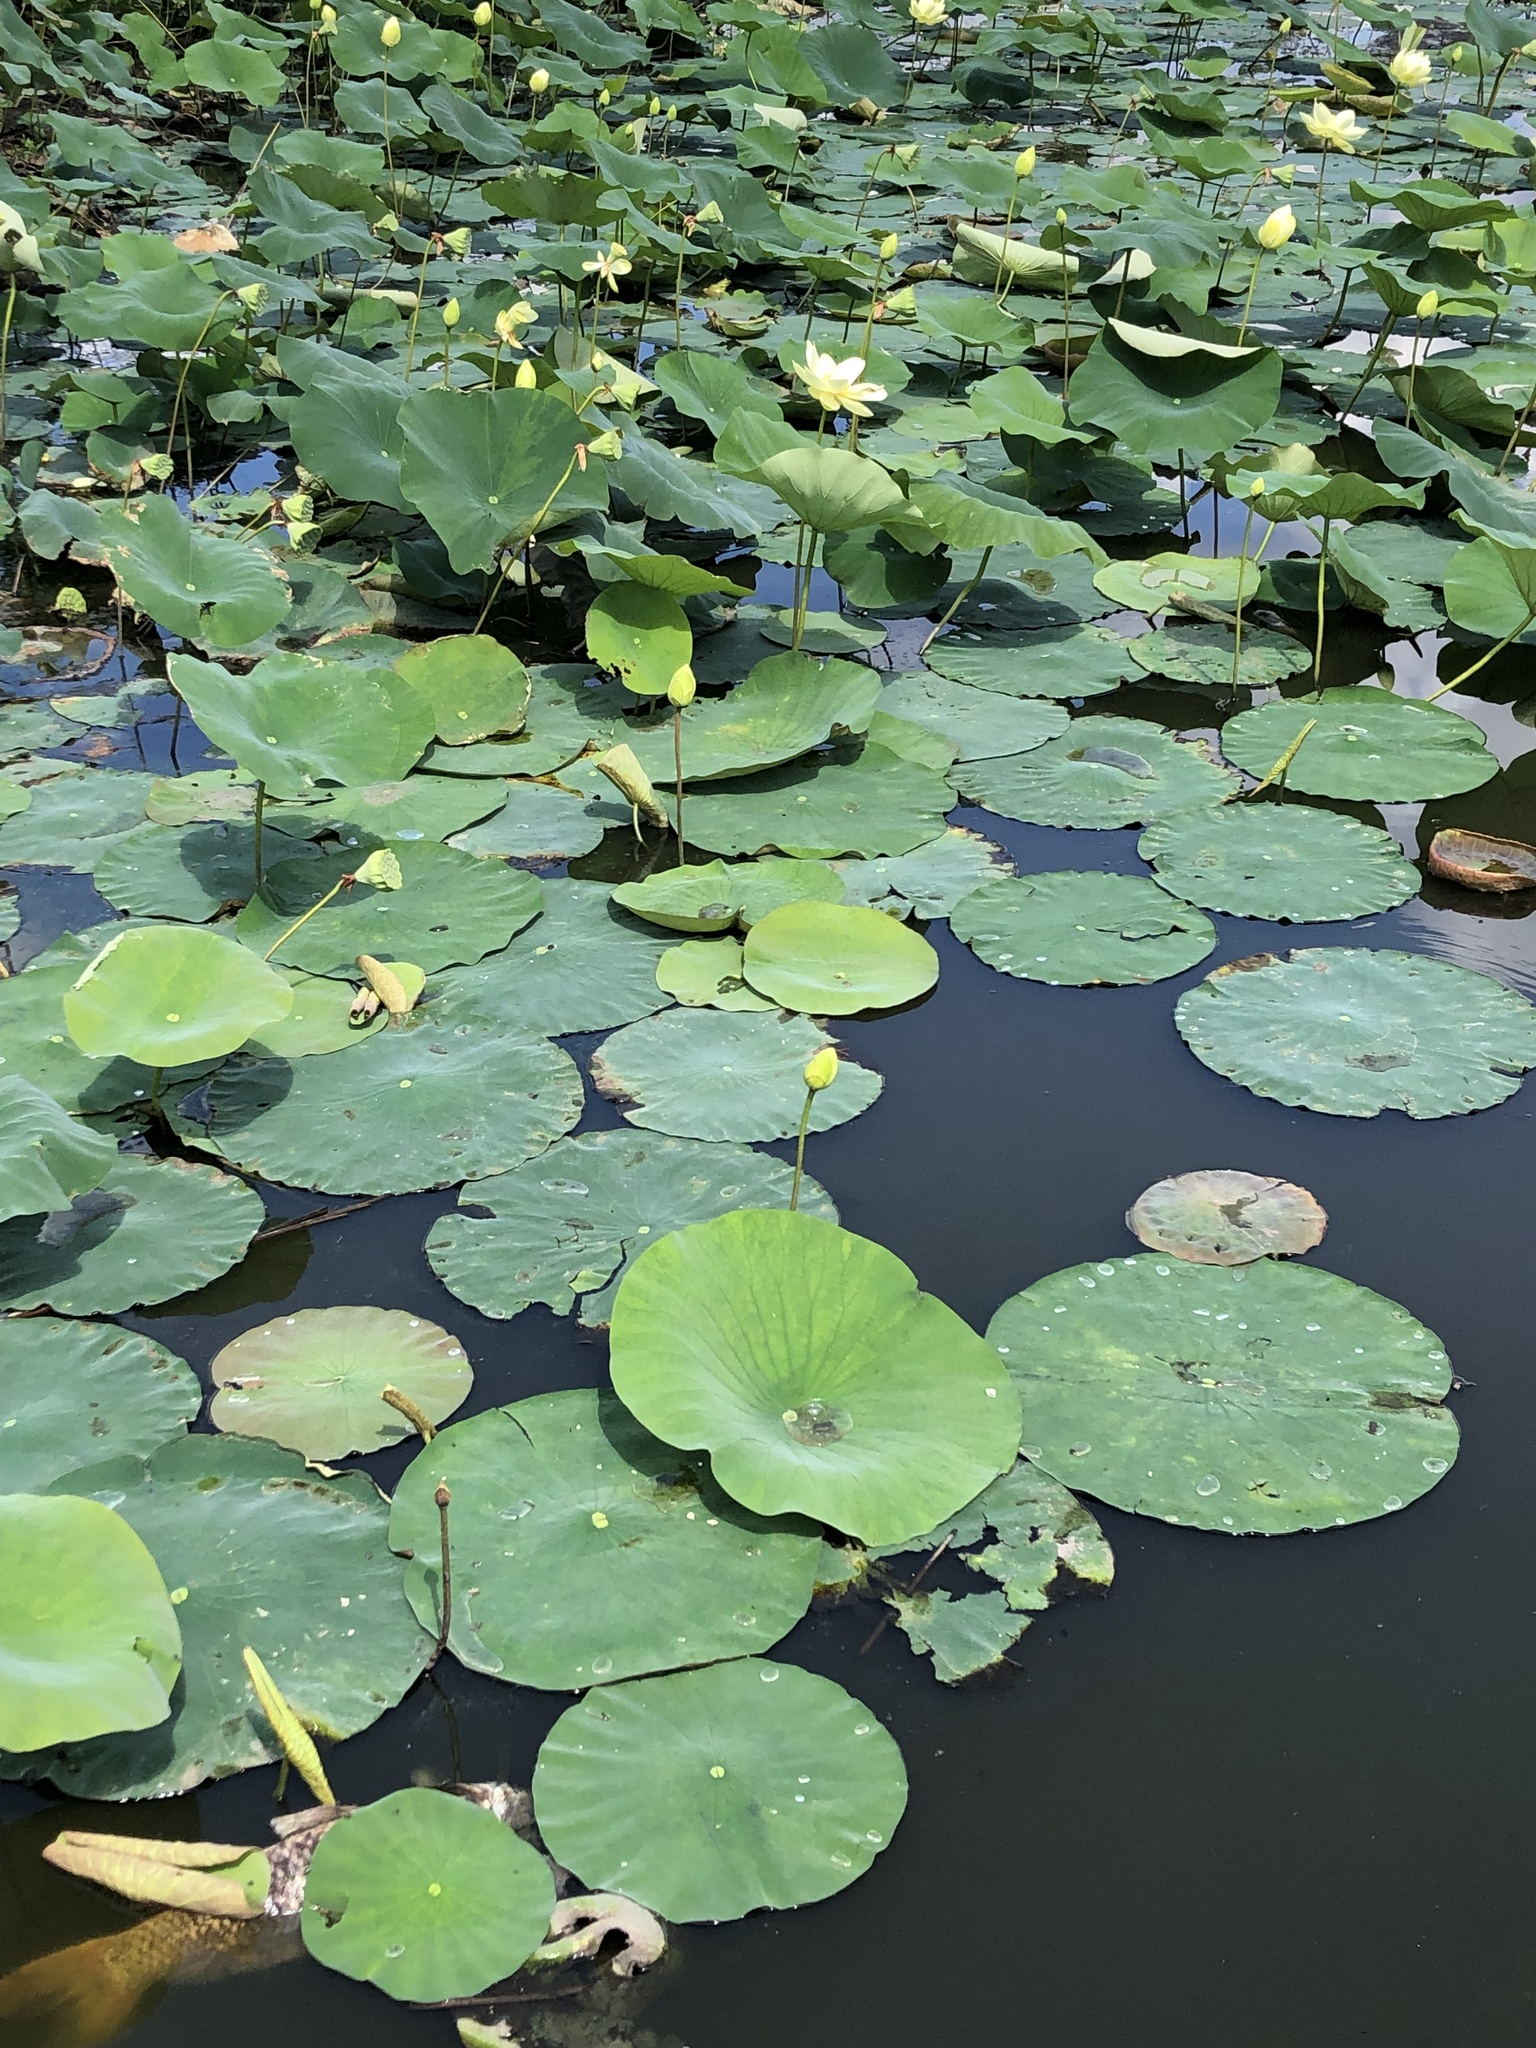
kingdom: Plantae
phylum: Tracheophyta
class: Magnoliopsida
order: Proteales
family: Nelumbonaceae
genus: Nelumbo
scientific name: Nelumbo lutea
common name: American lotus
